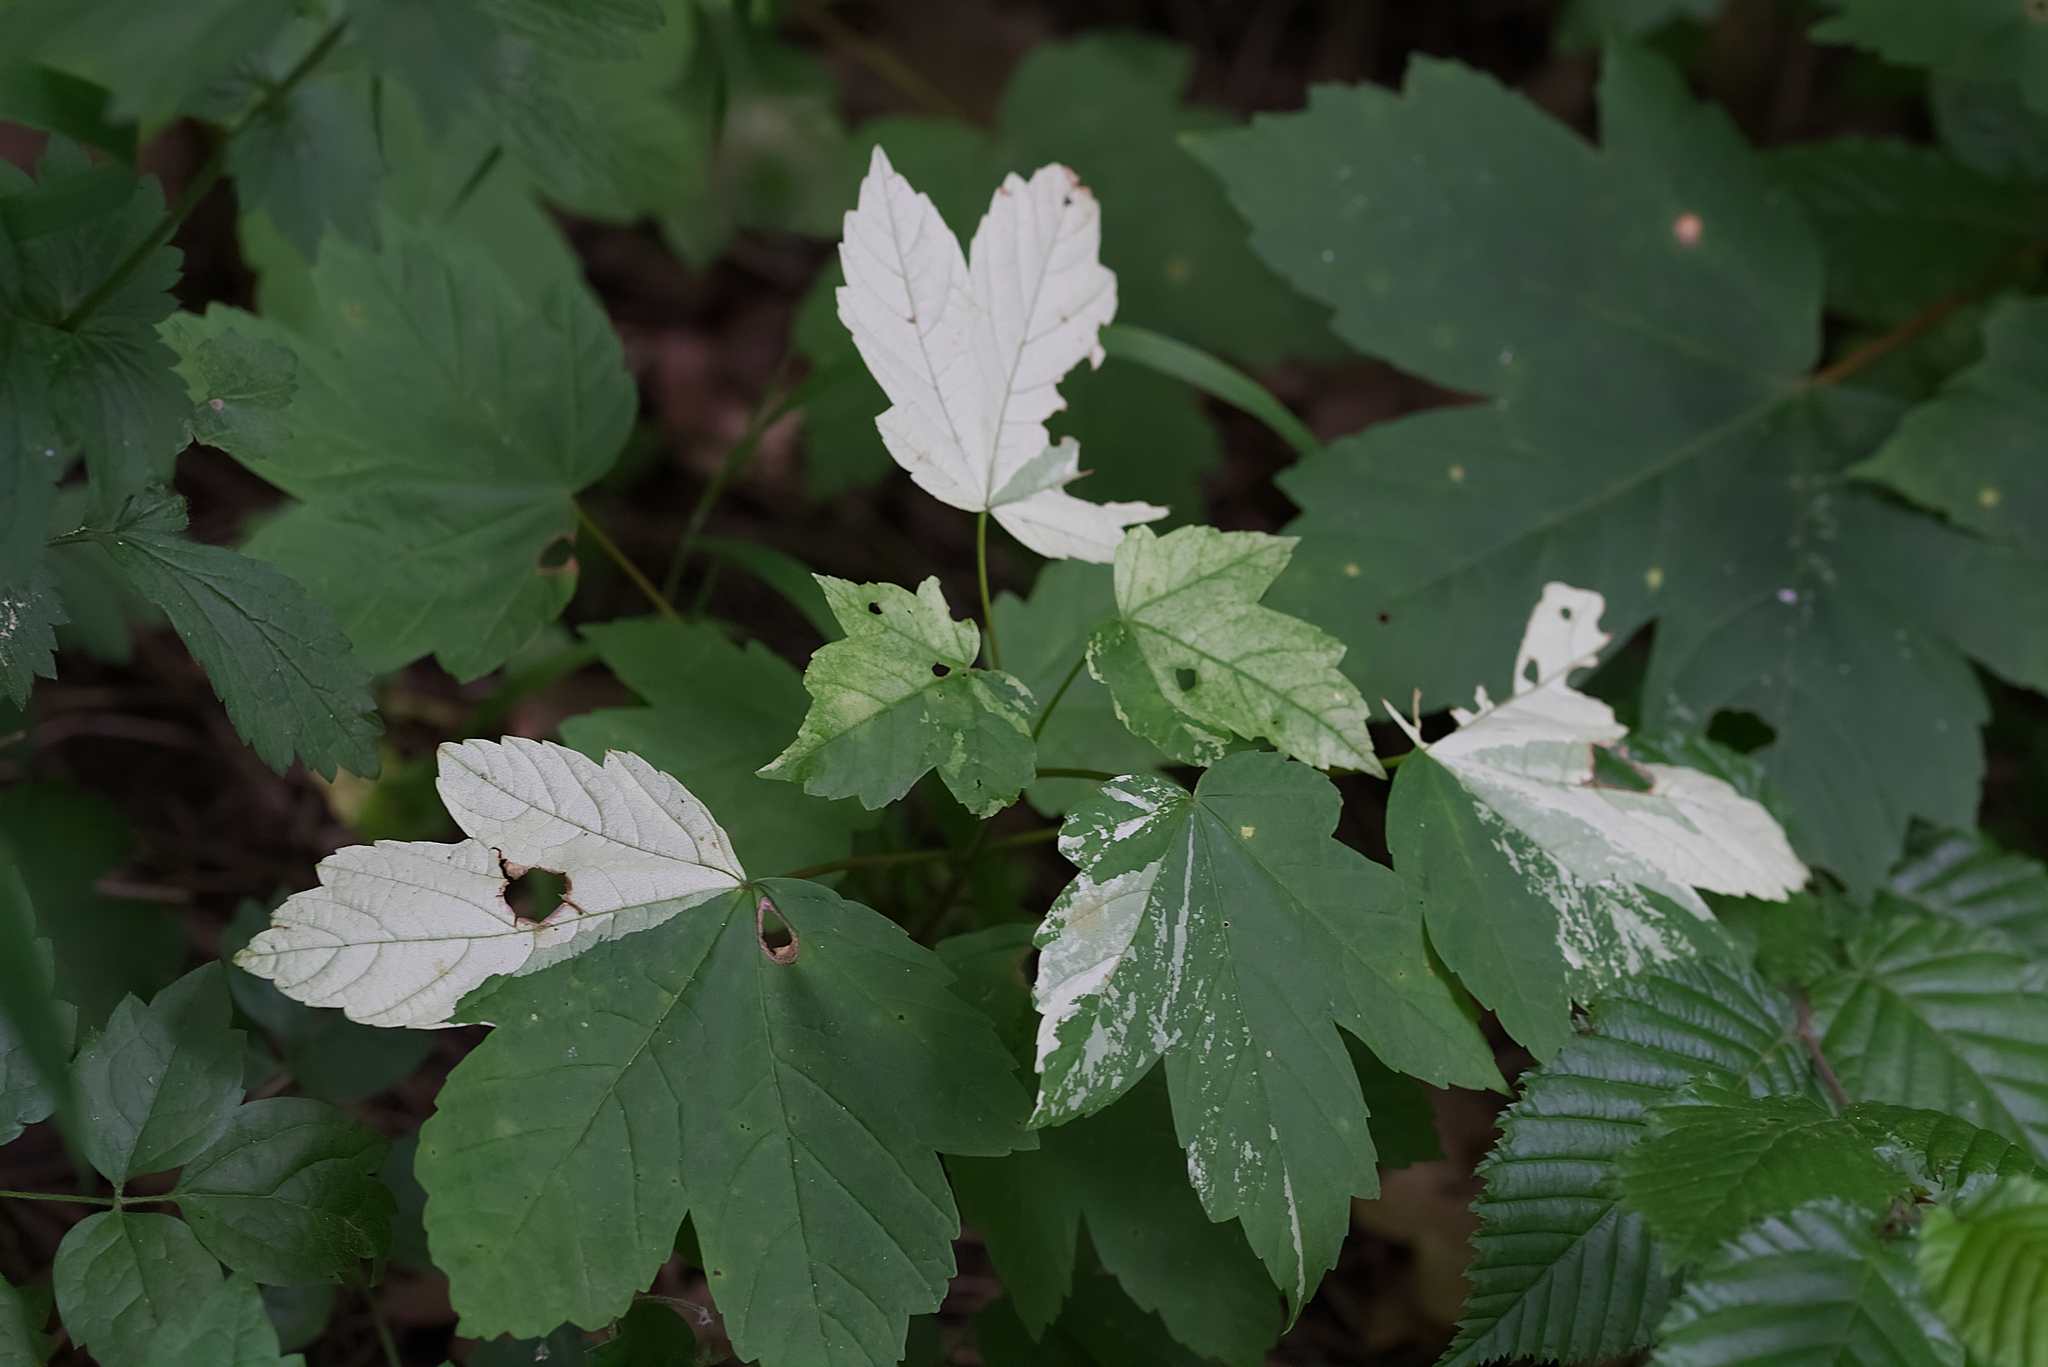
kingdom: Plantae
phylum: Tracheophyta
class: Magnoliopsida
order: Sapindales
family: Sapindaceae
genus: Acer
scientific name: Acer pseudoplatanus
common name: Sycamore
